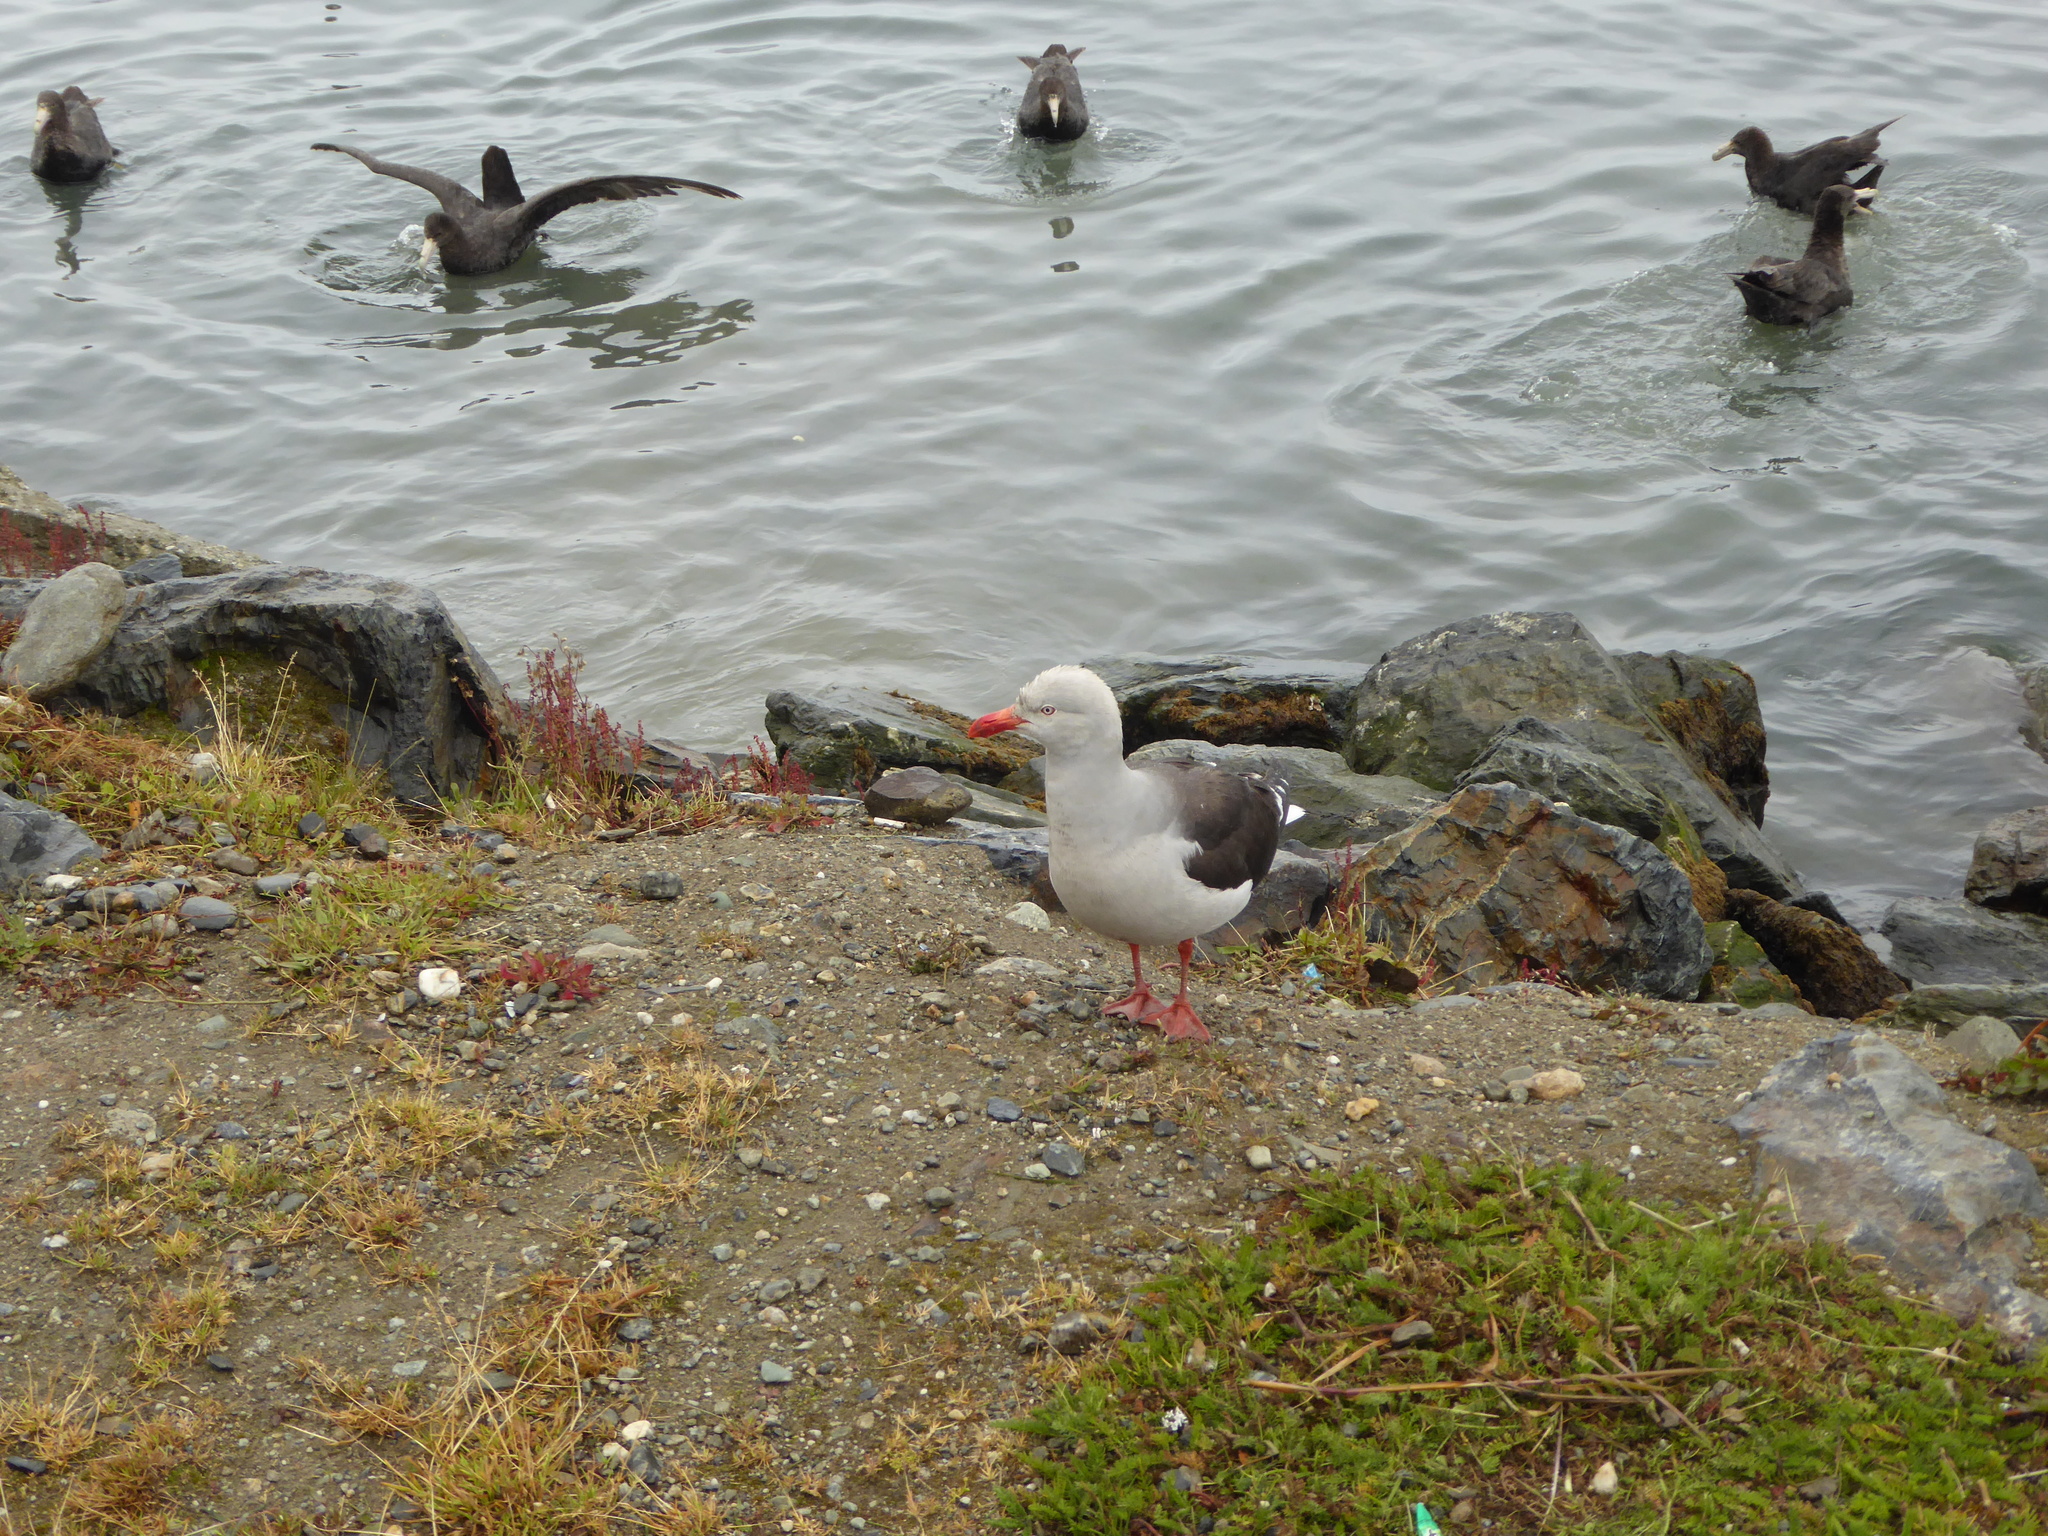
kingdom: Animalia
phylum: Chordata
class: Aves
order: Charadriiformes
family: Laridae
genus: Leucophaeus
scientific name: Leucophaeus scoresbii
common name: Dolphin gull
